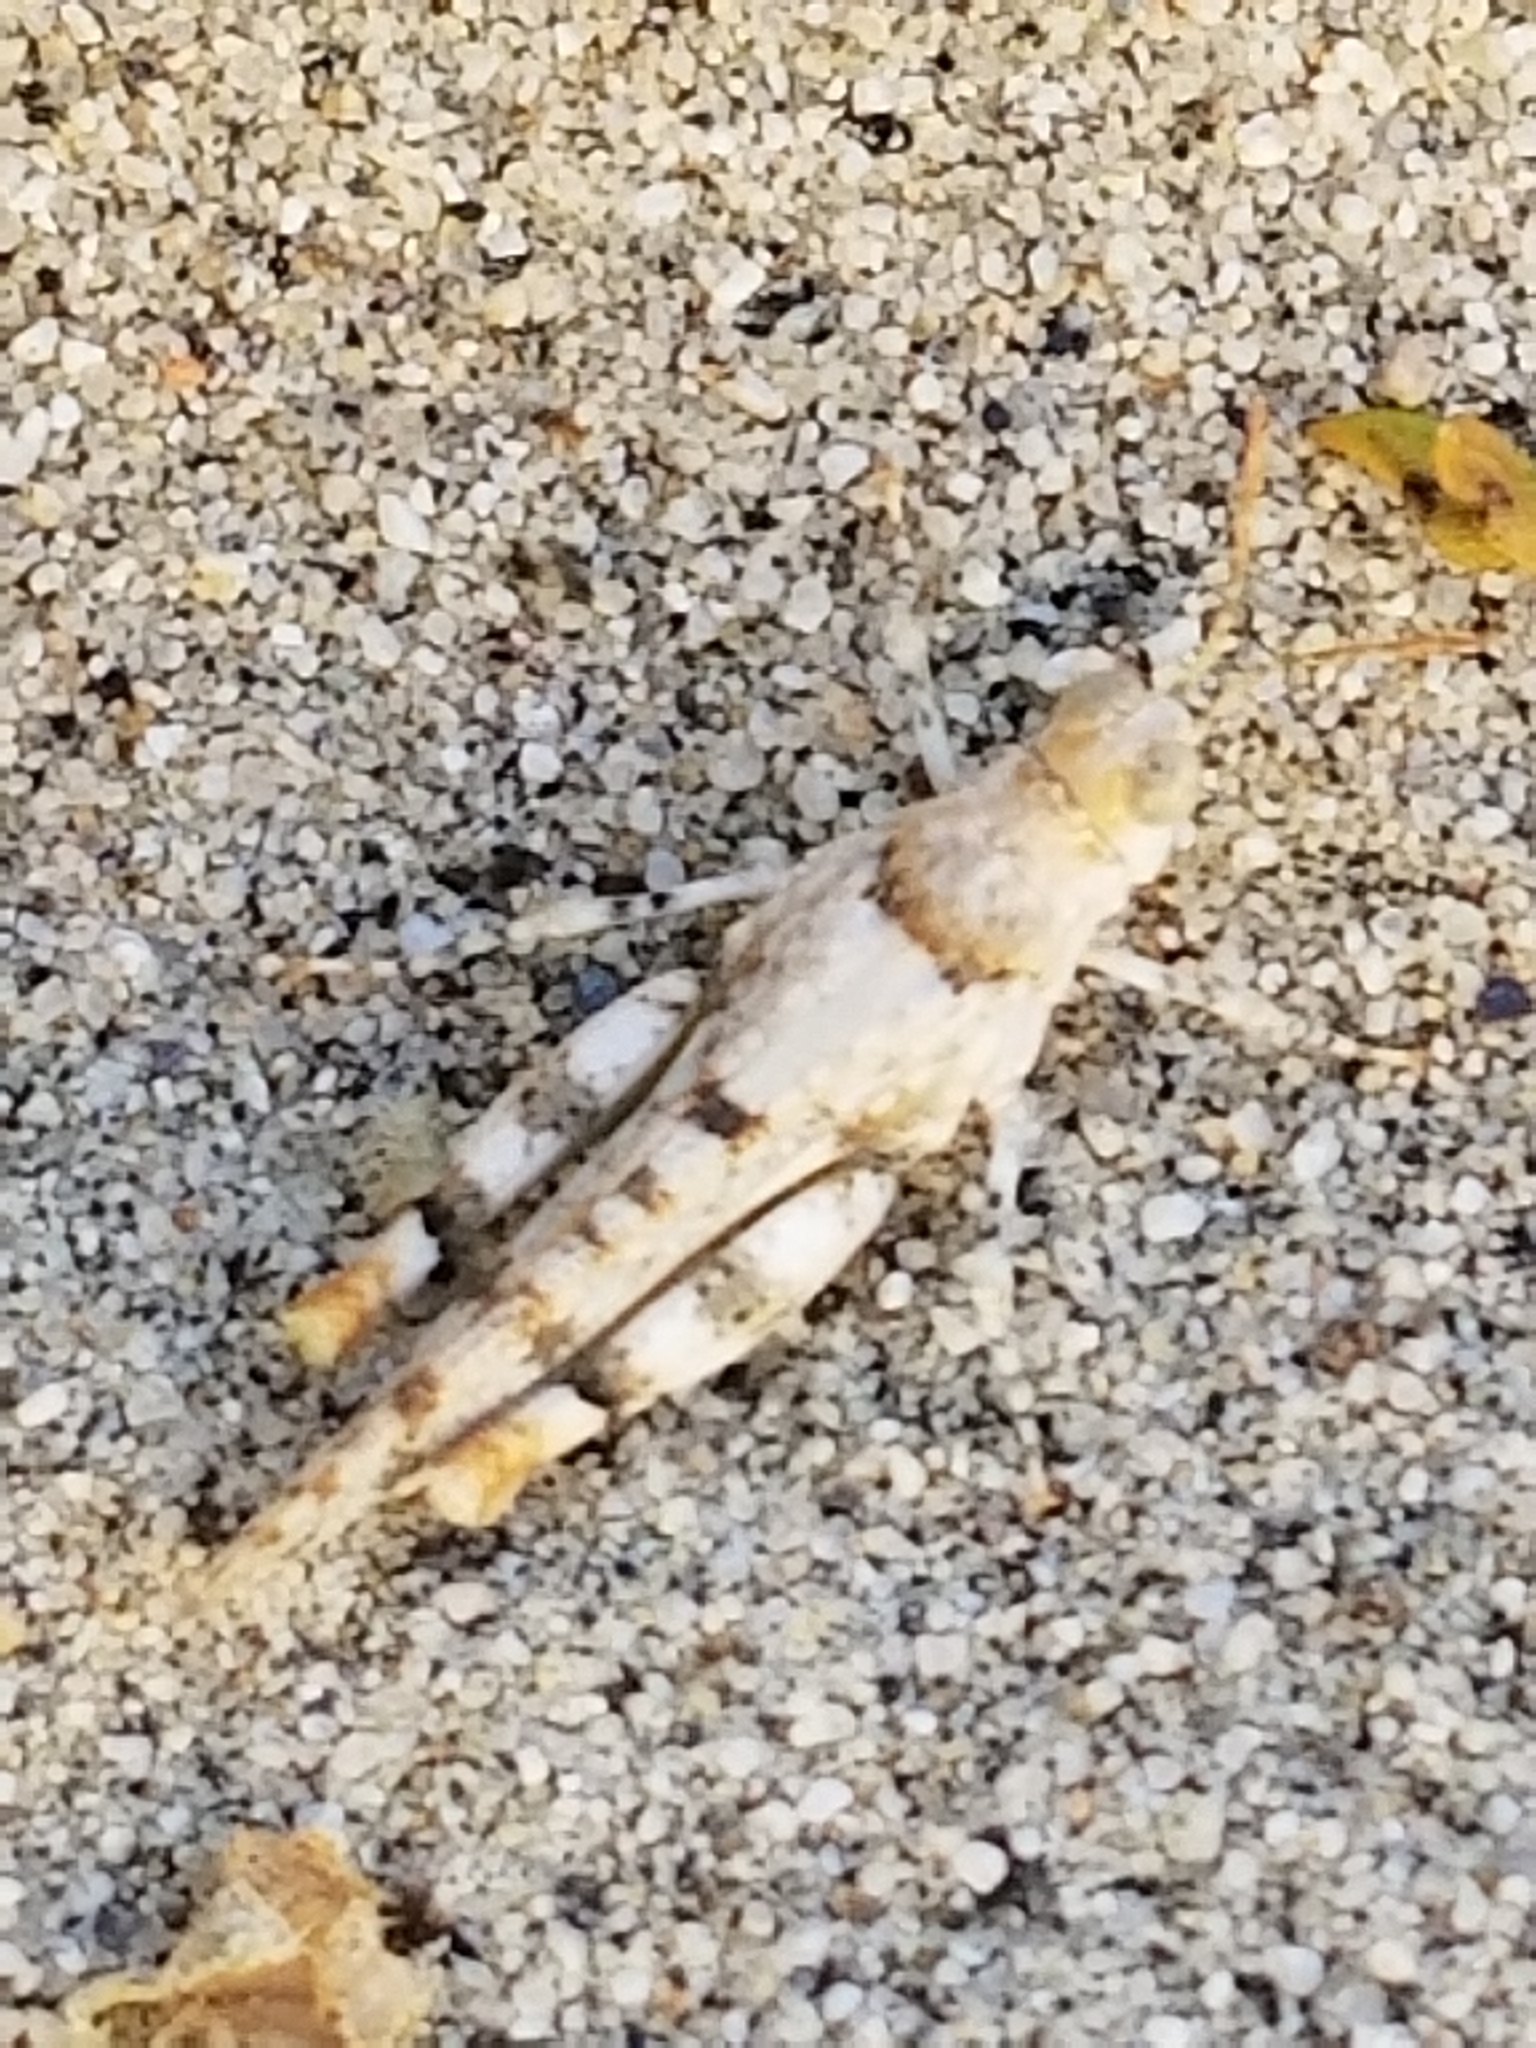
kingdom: Animalia
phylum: Arthropoda
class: Insecta
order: Orthoptera
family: Acrididae
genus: Cibolacris
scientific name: Cibolacris parviceps
